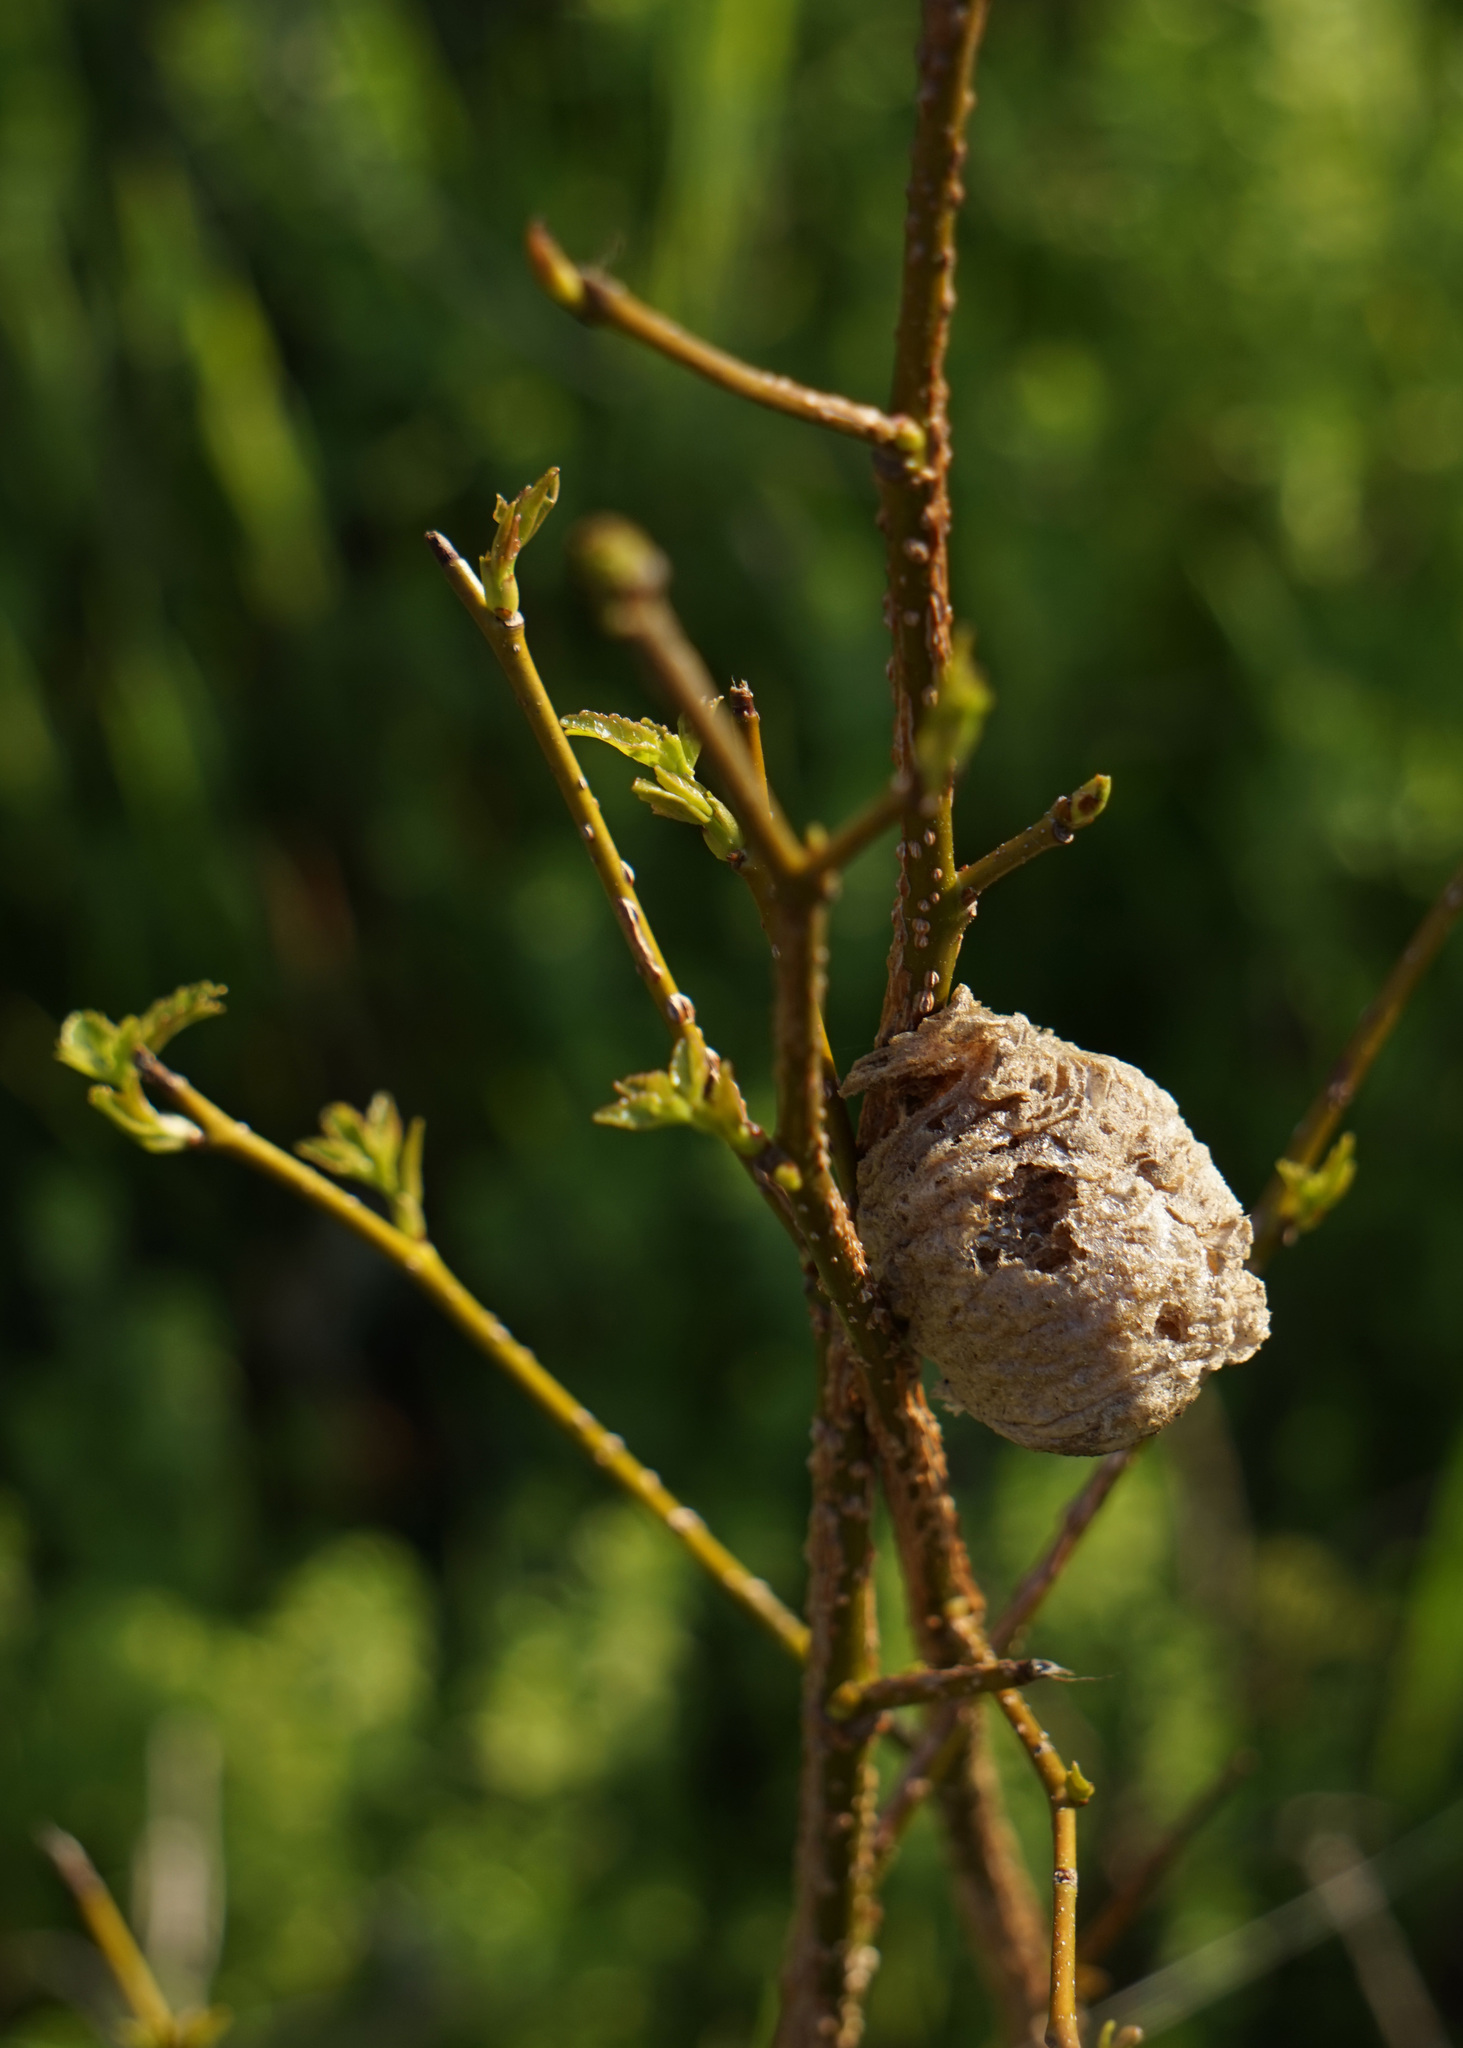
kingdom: Animalia
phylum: Arthropoda
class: Insecta
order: Mantodea
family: Mantidae
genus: Tenodera
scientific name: Tenodera sinensis
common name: Chinese mantis
